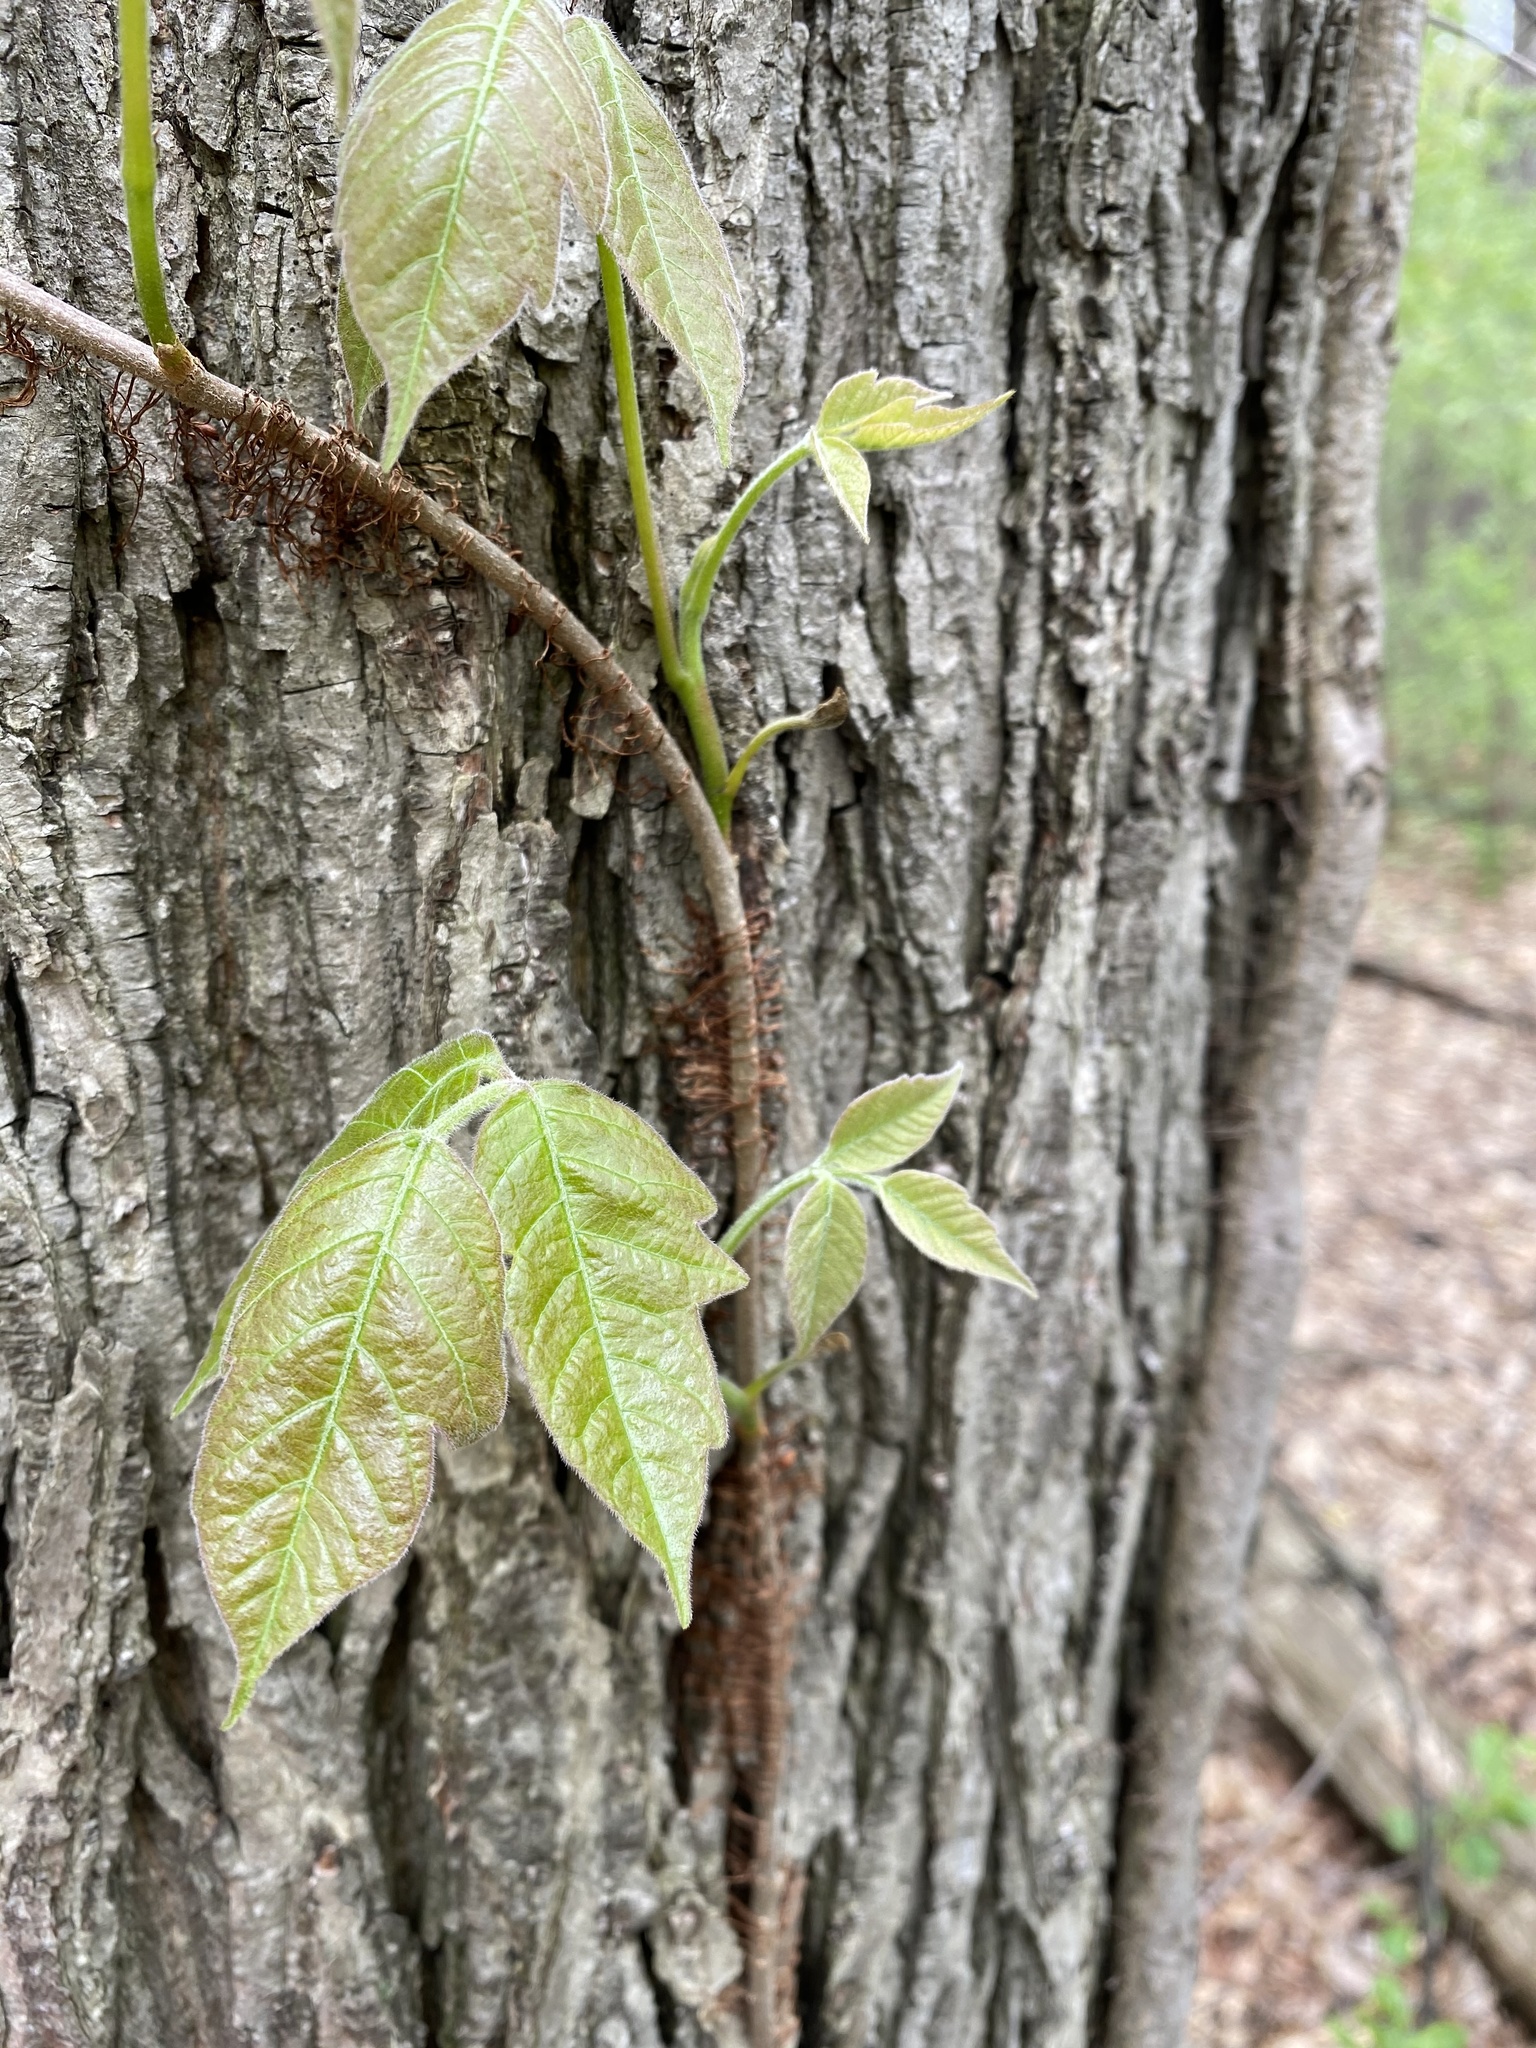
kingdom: Plantae
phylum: Tracheophyta
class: Magnoliopsida
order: Sapindales
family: Anacardiaceae
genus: Toxicodendron
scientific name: Toxicodendron radicans
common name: Poison ivy
